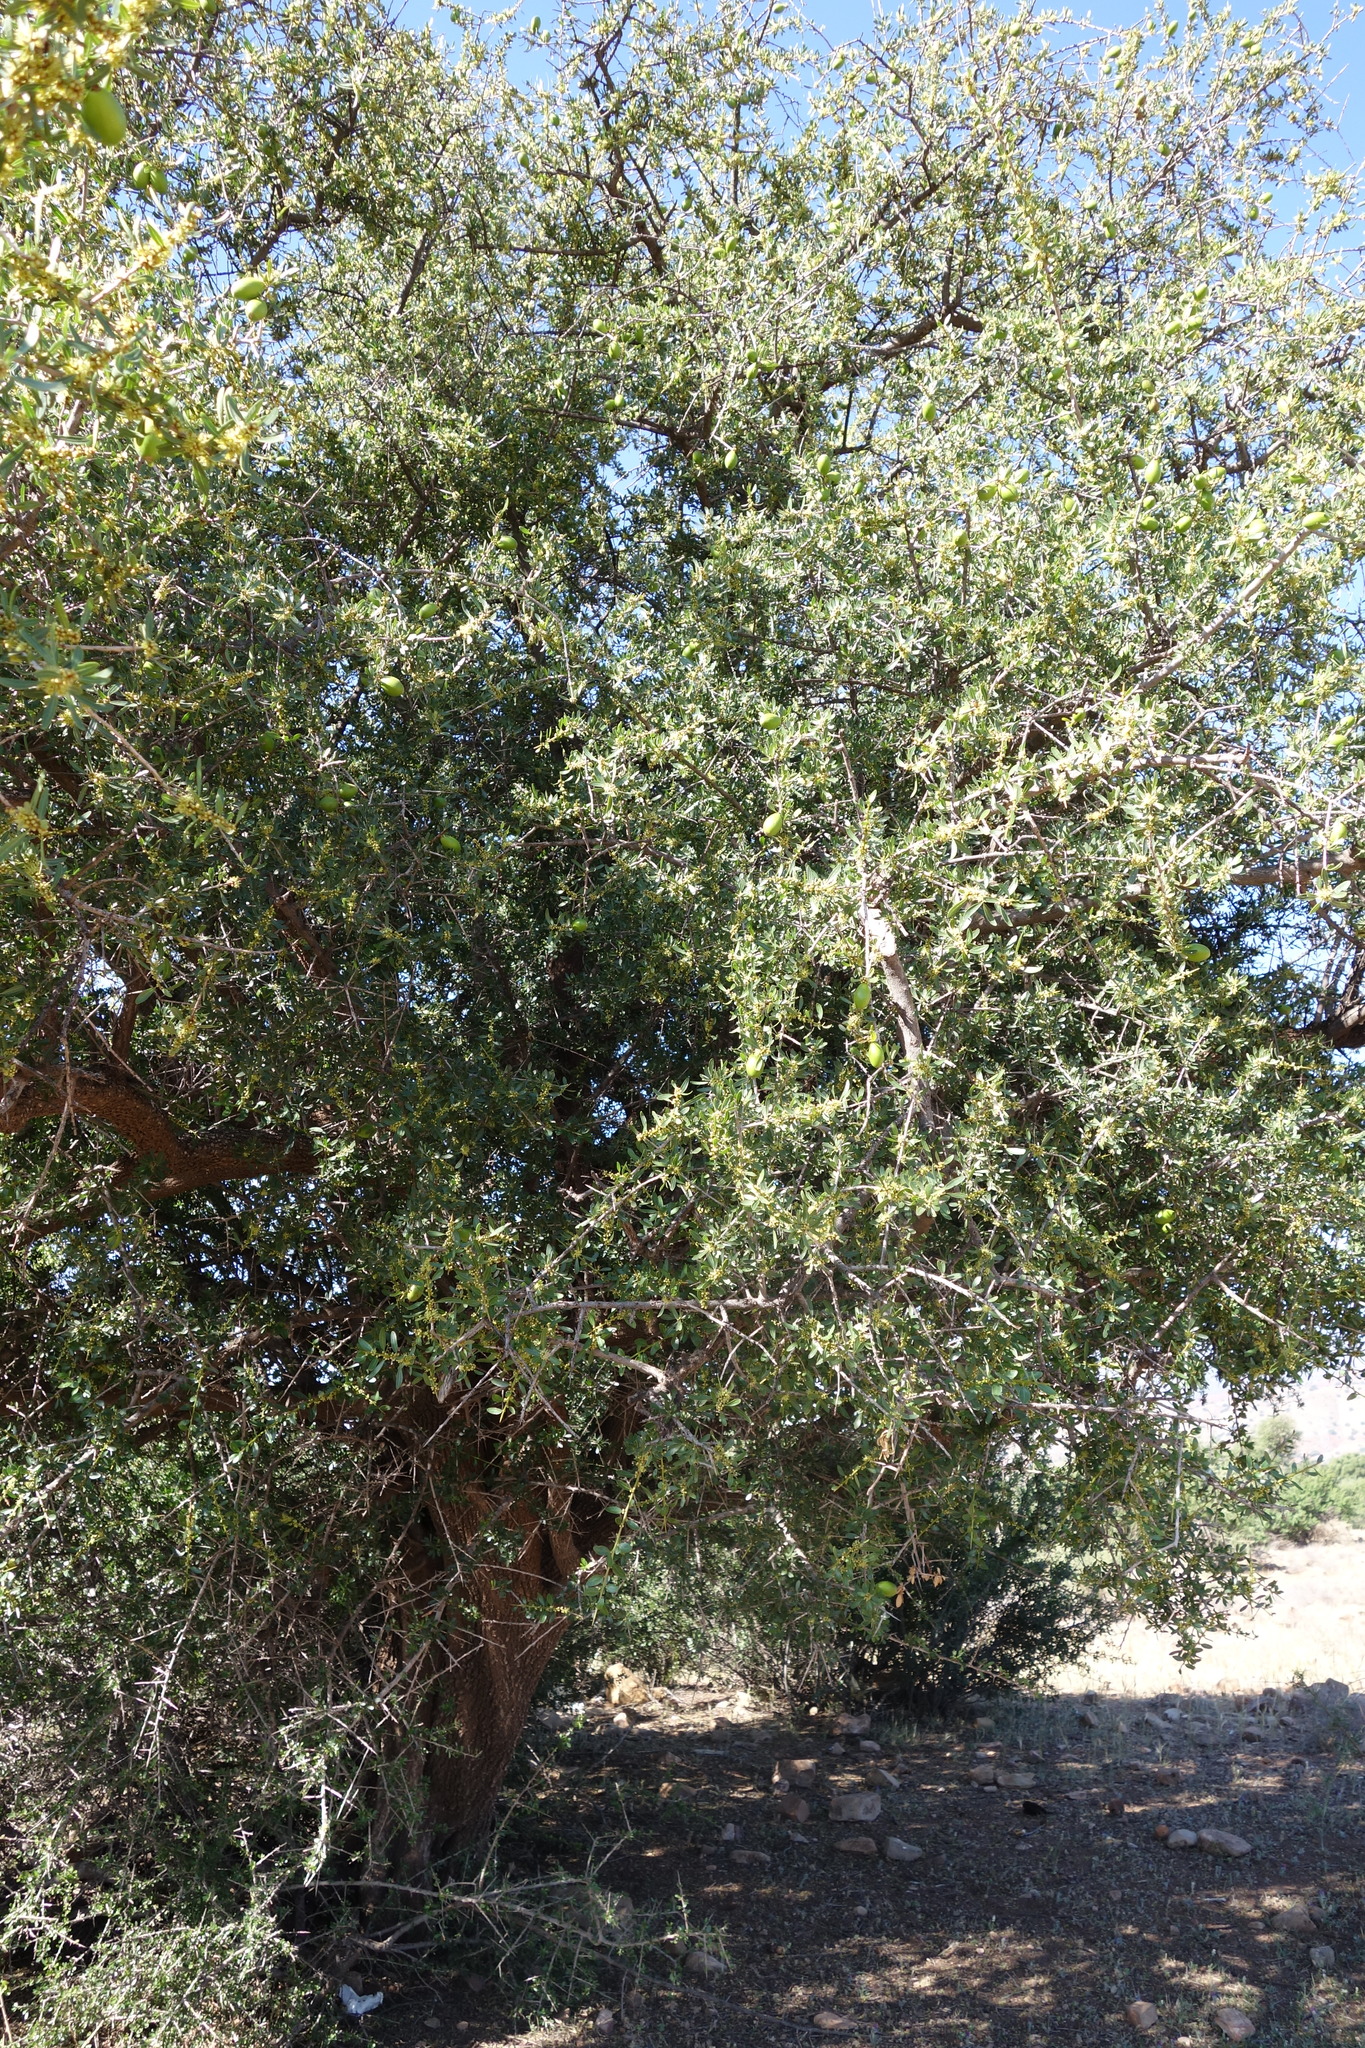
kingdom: Plantae
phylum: Tracheophyta
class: Magnoliopsida
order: Ericales
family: Sapotaceae
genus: Sideroxylon
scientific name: Sideroxylon spinosum
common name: Argan
